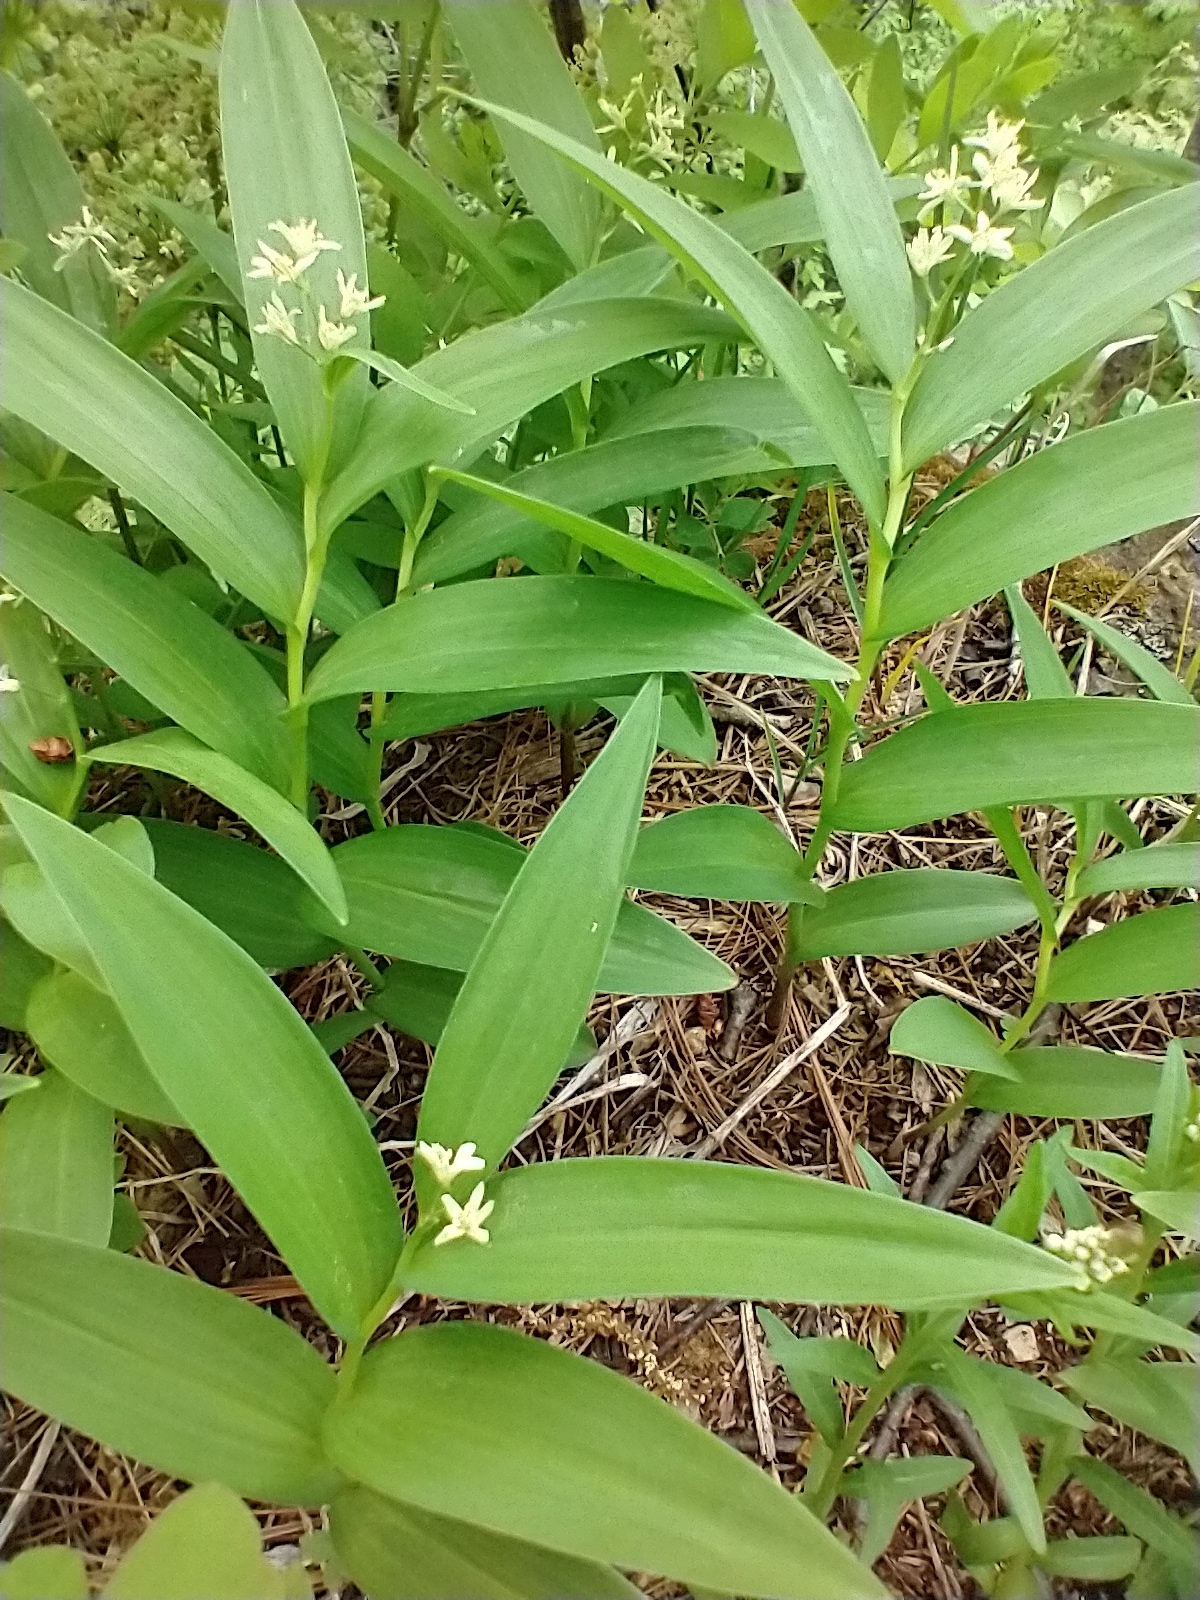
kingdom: Plantae
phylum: Tracheophyta
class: Liliopsida
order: Asparagales
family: Asparagaceae
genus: Maianthemum
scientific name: Maianthemum stellatum
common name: Little false solomon's seal
